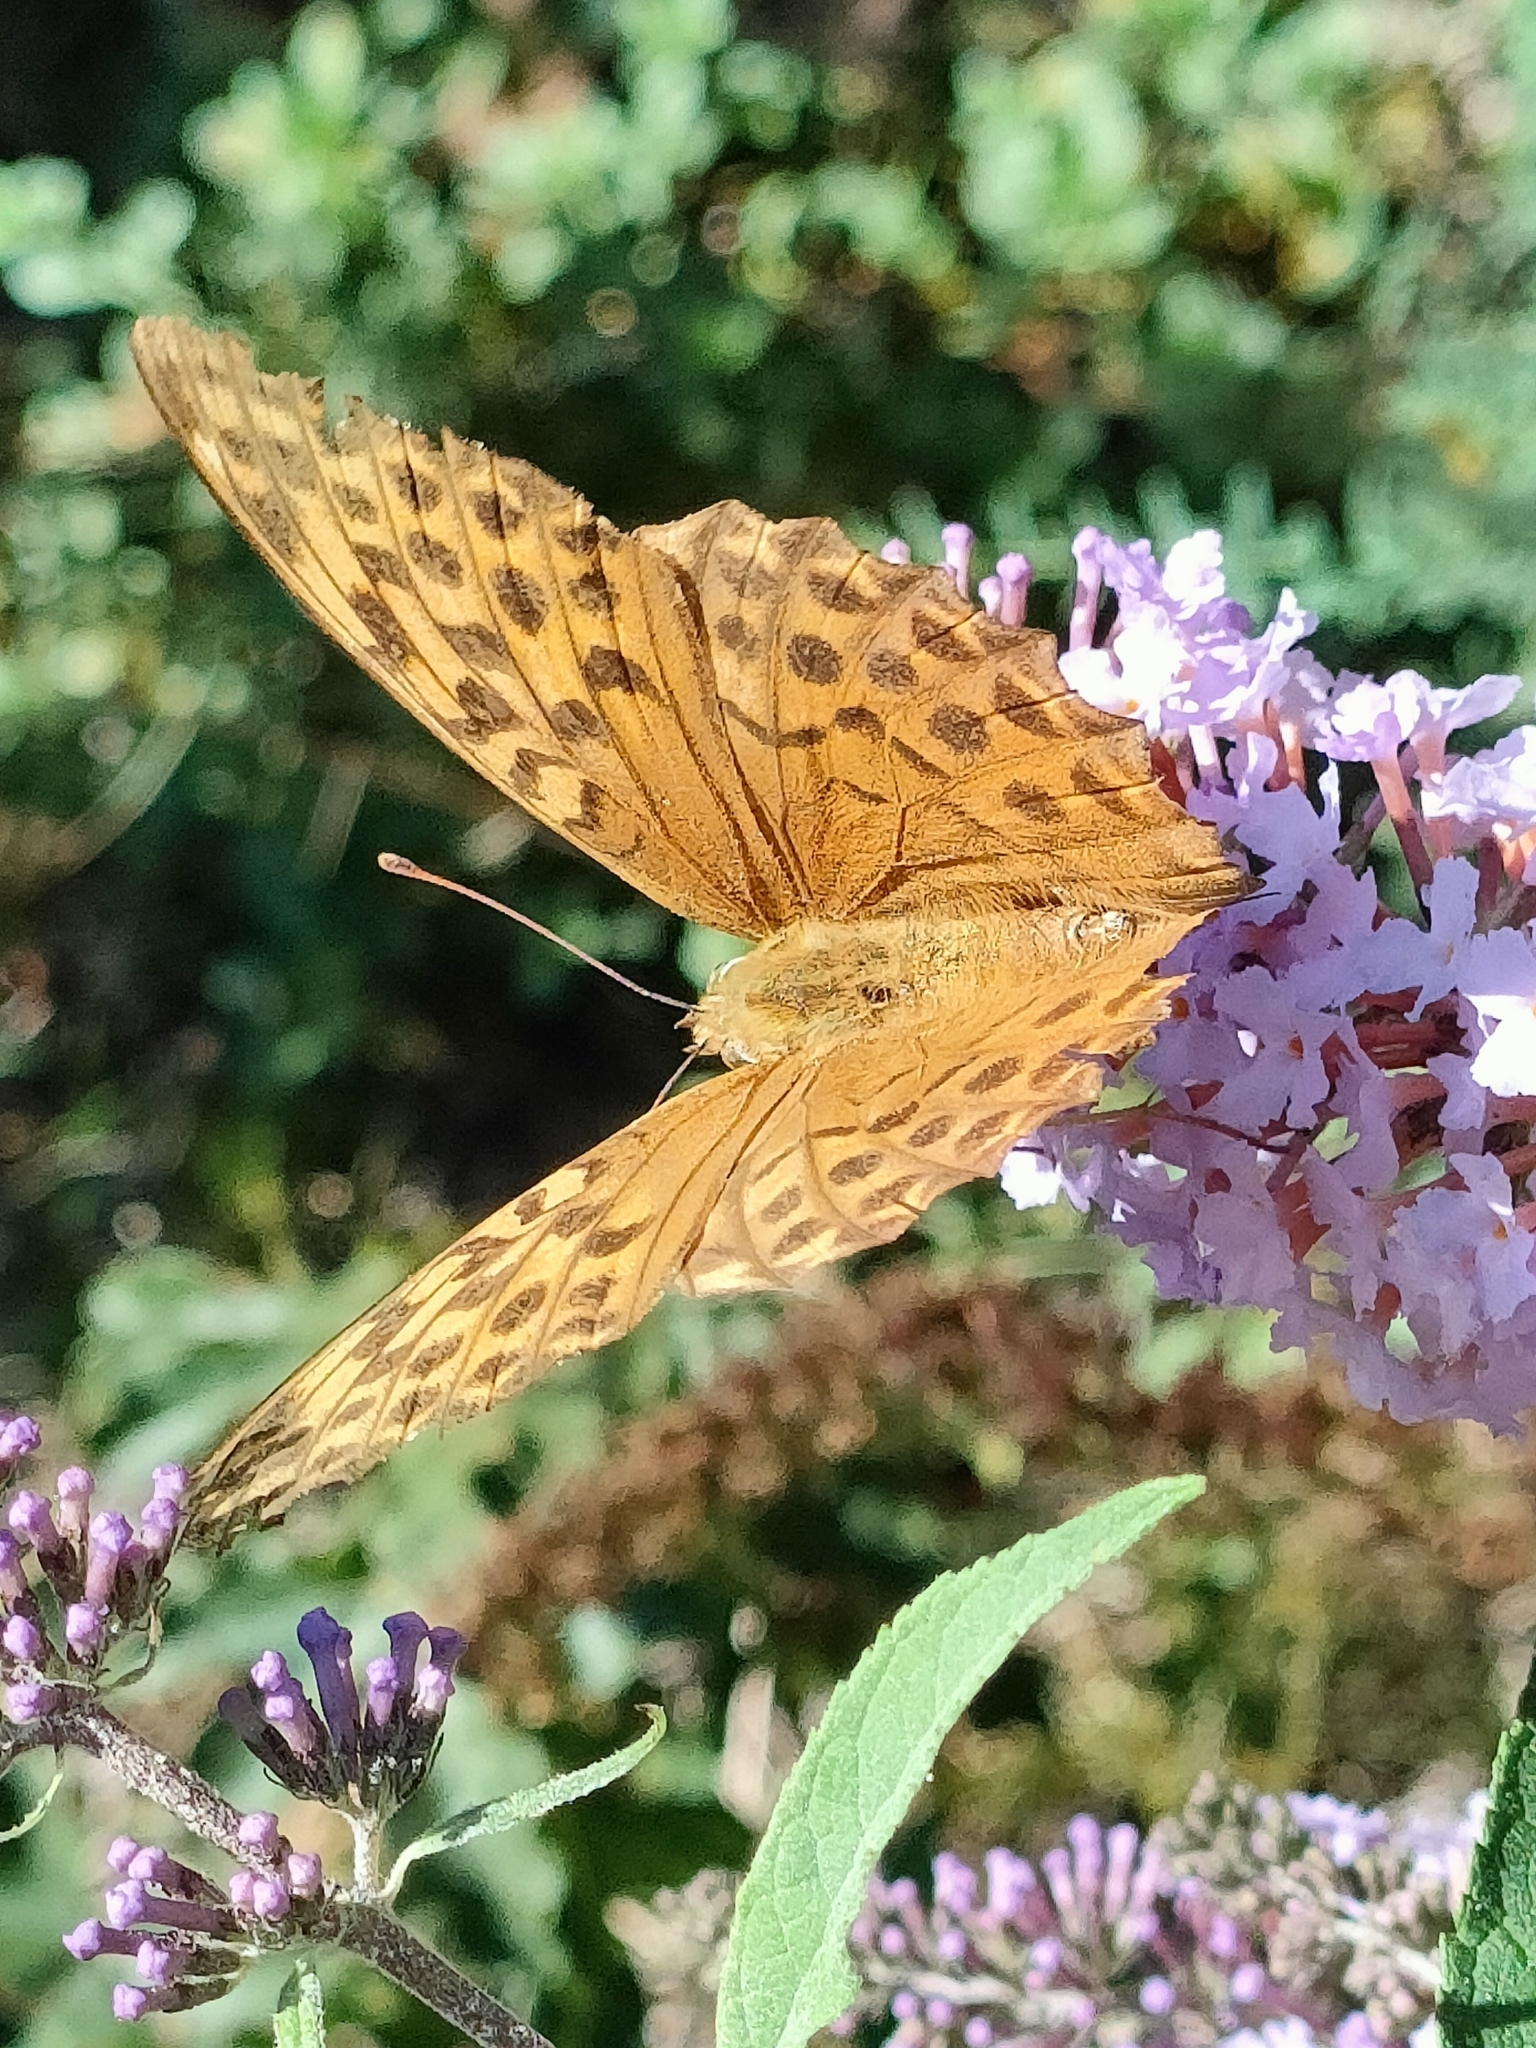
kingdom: Animalia
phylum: Arthropoda
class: Insecta
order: Lepidoptera
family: Nymphalidae
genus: Argynnis
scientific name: Argynnis paphia
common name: Silver-washed fritillary
